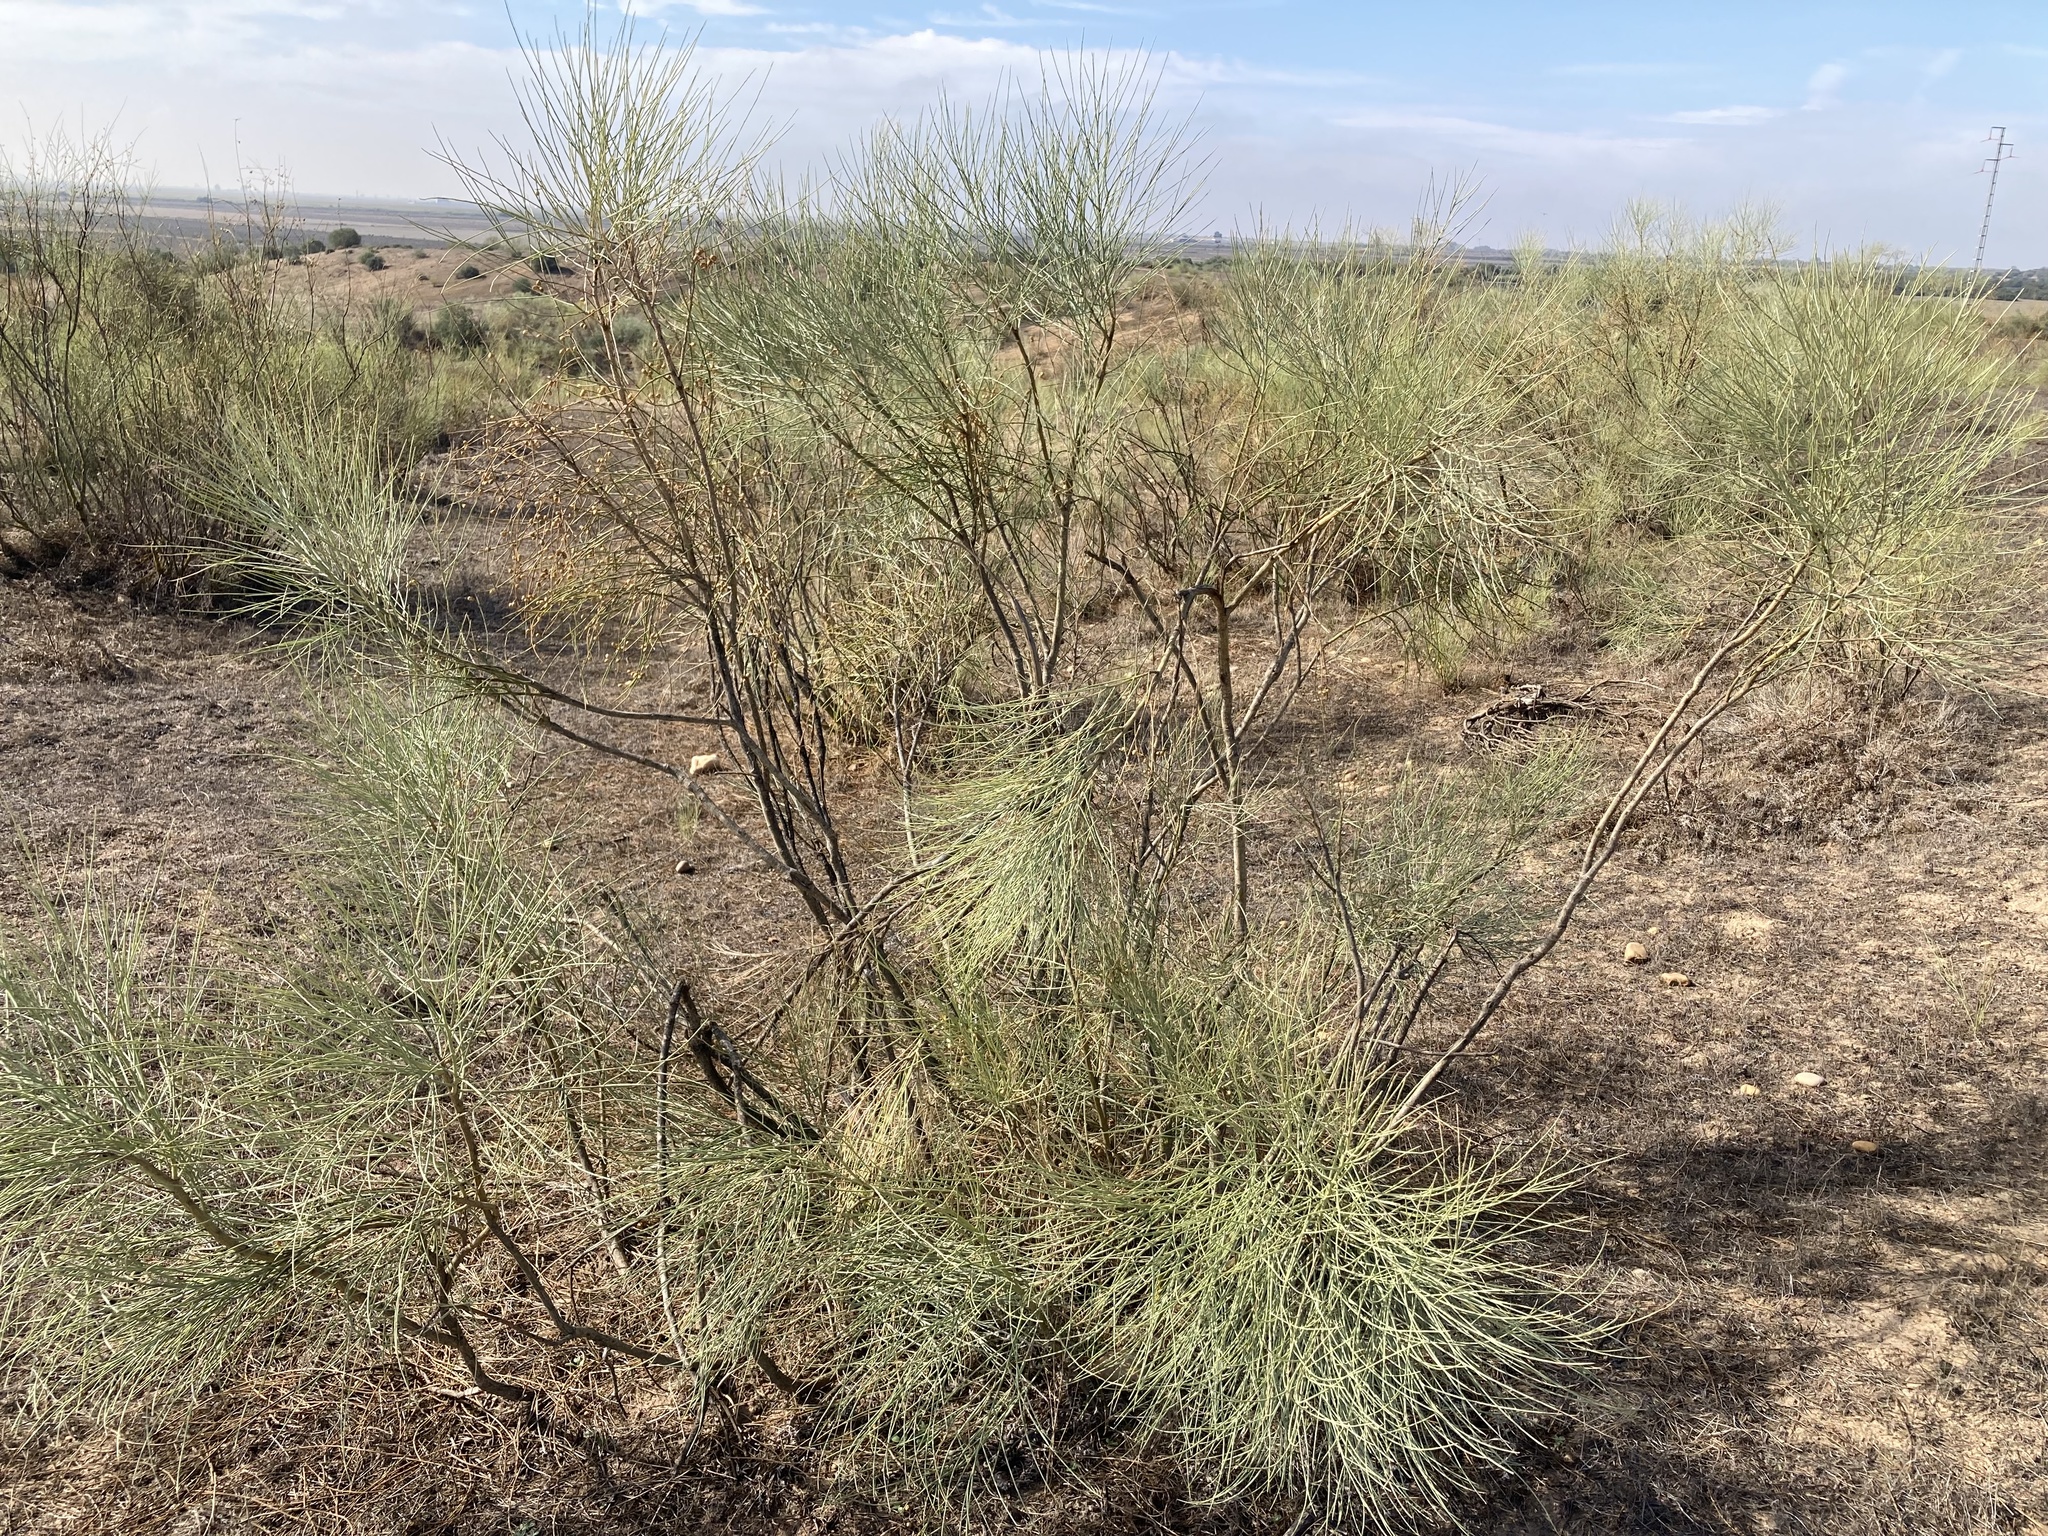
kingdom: Plantae
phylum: Tracheophyta
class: Magnoliopsida
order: Fabales
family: Fabaceae
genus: Retama
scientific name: Retama sphaerocarpa
